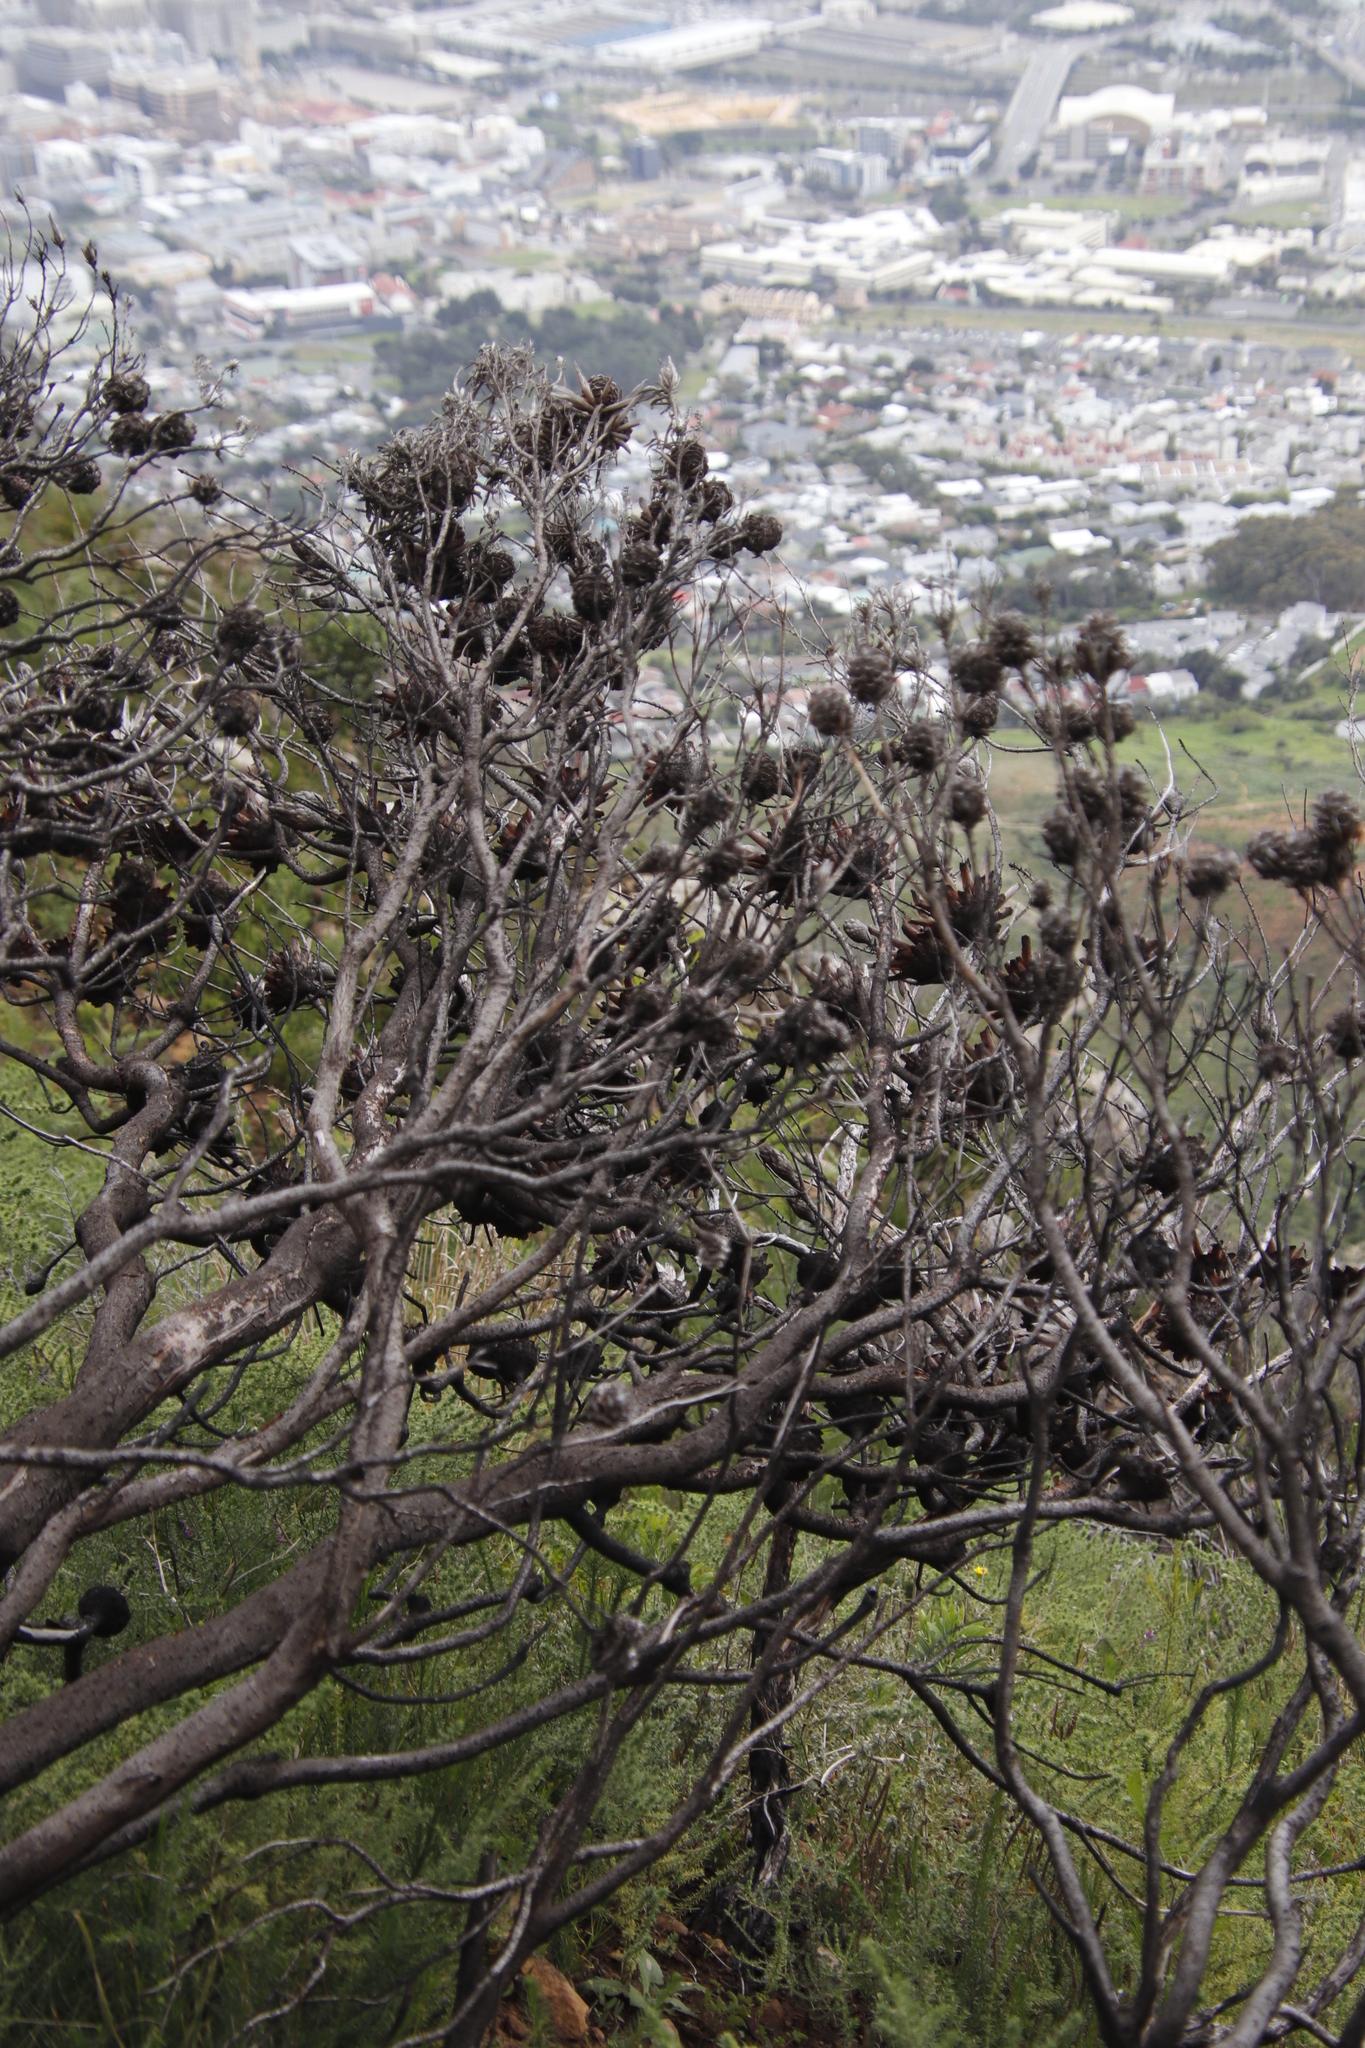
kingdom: Plantae
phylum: Tracheophyta
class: Magnoliopsida
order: Proteales
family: Proteaceae
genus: Leucadendron
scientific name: Leucadendron xanthoconus
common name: Sickle-leaf conebush
